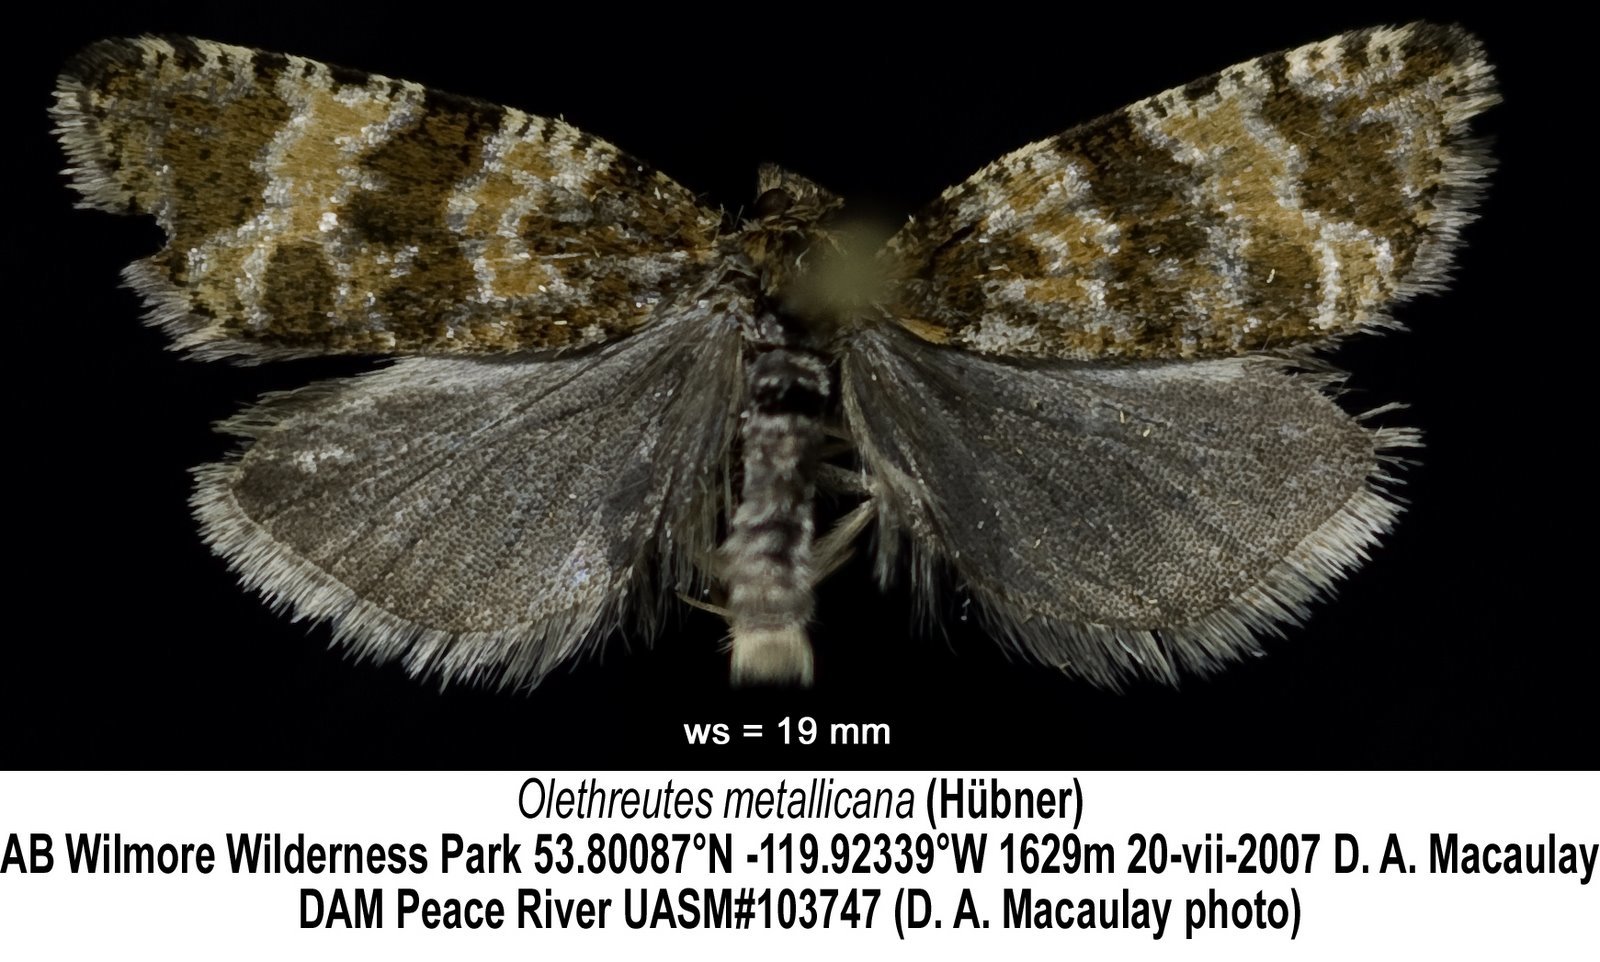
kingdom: Animalia
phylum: Arthropoda
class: Insecta
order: Lepidoptera
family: Tortricidae
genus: Olethreutes
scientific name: Olethreutes metallicana
